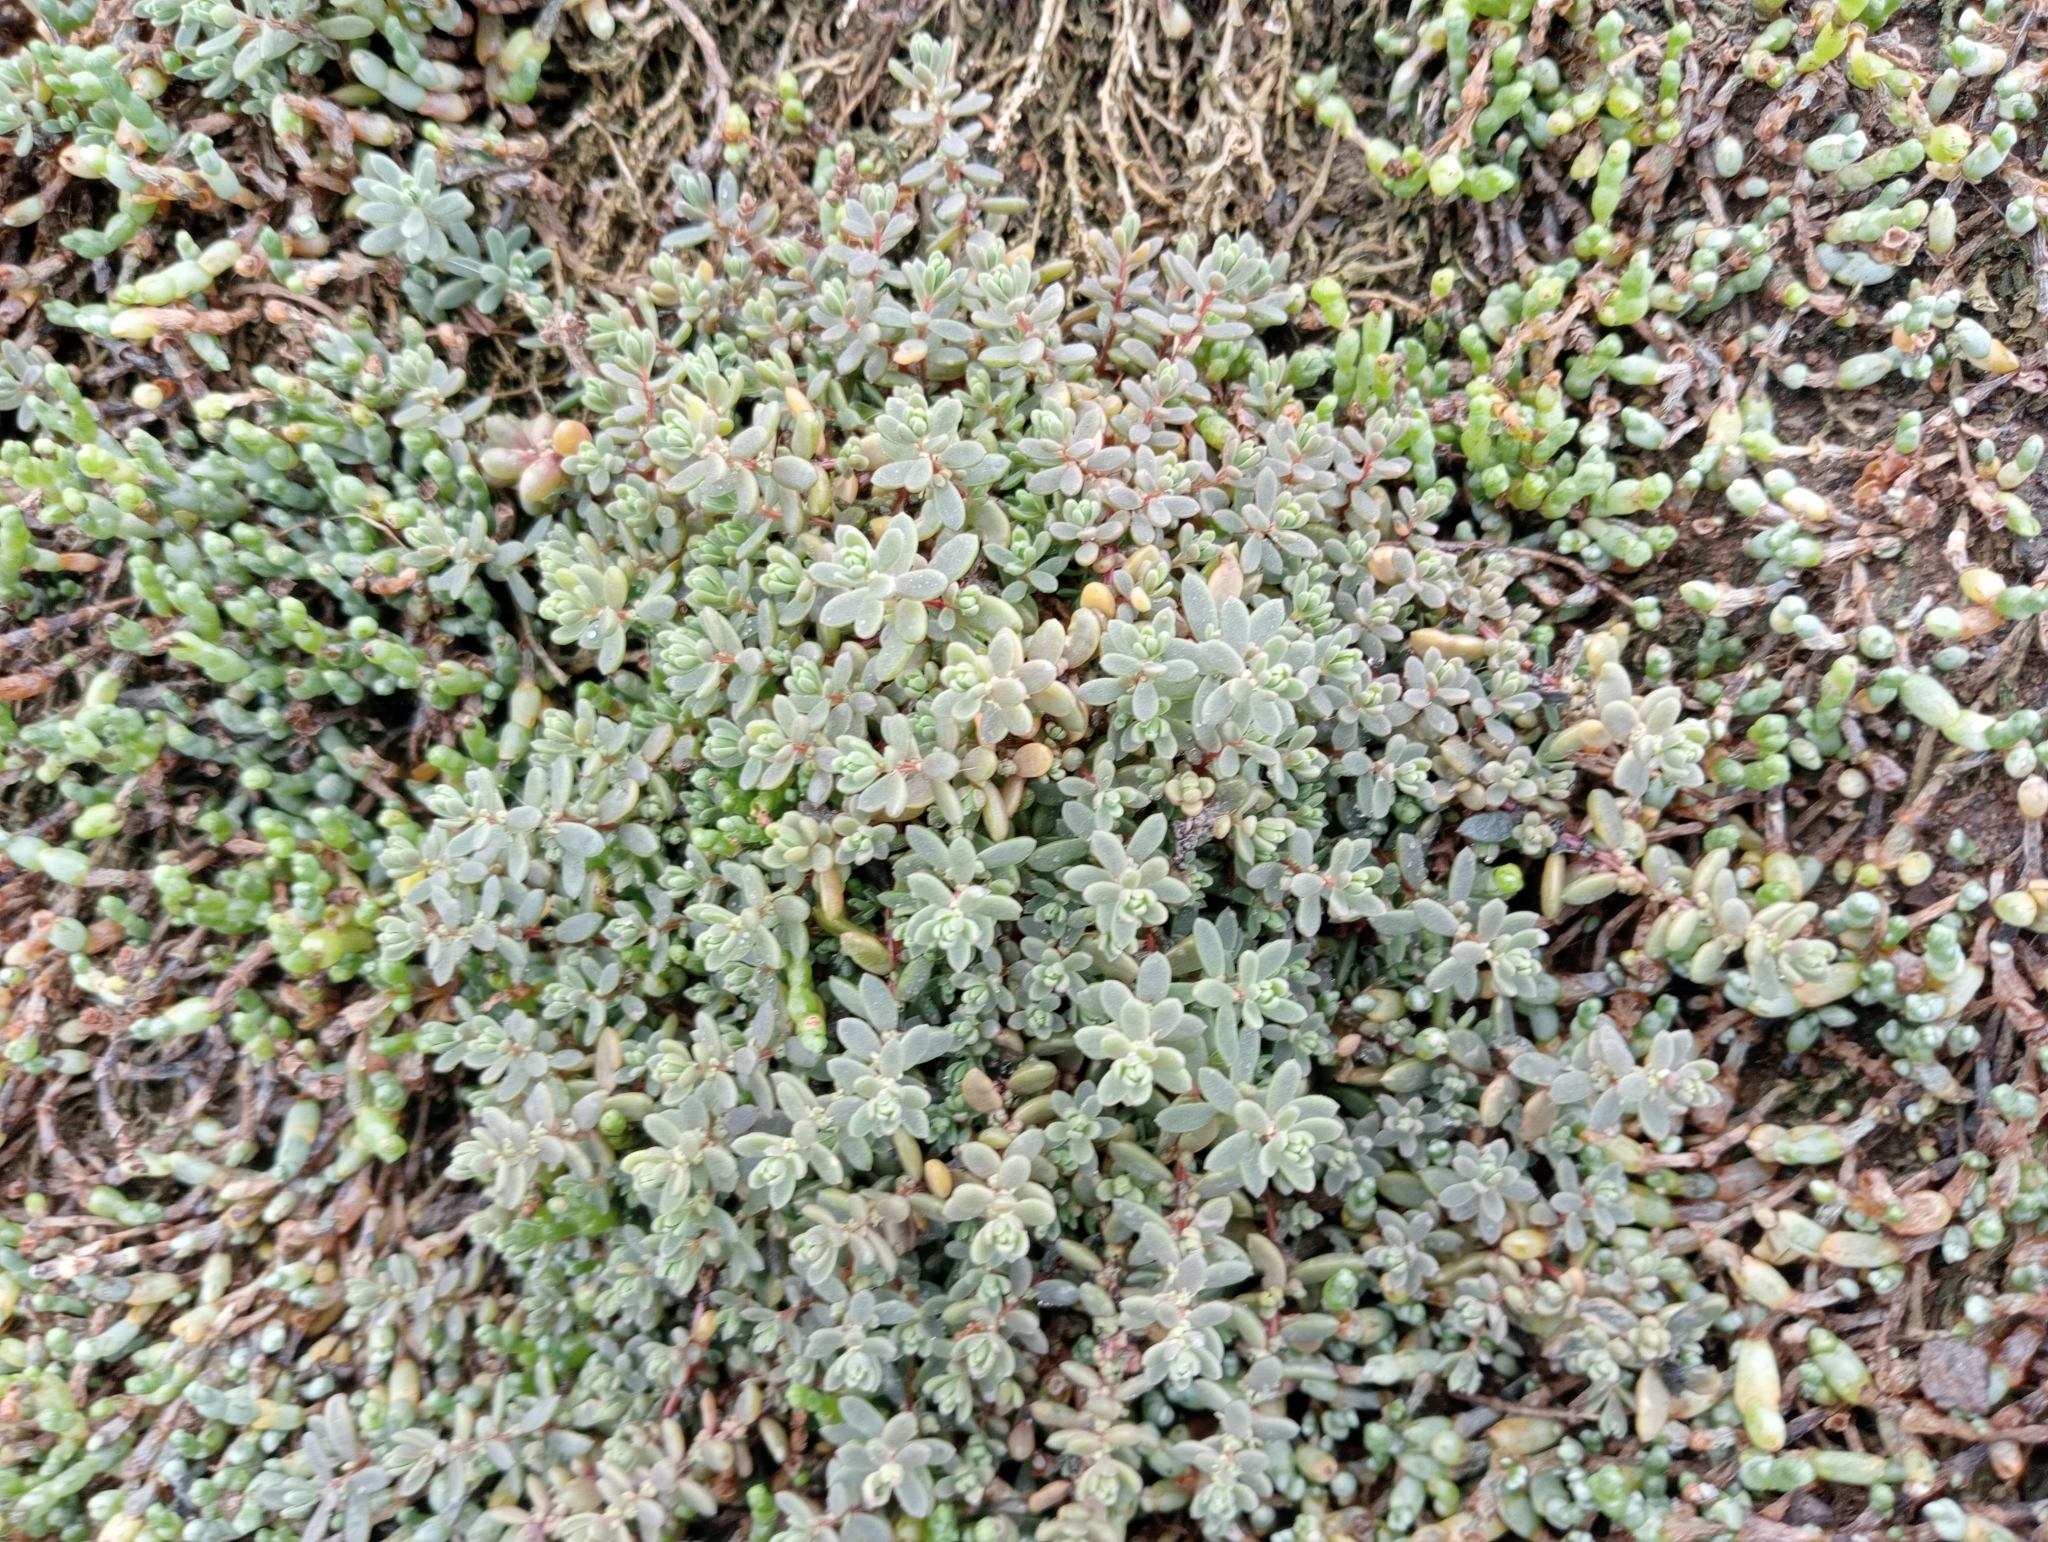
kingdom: Plantae
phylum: Tracheophyta
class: Magnoliopsida
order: Caryophyllales
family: Amaranthaceae
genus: Suaeda
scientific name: Suaeda novae-zelandiae
